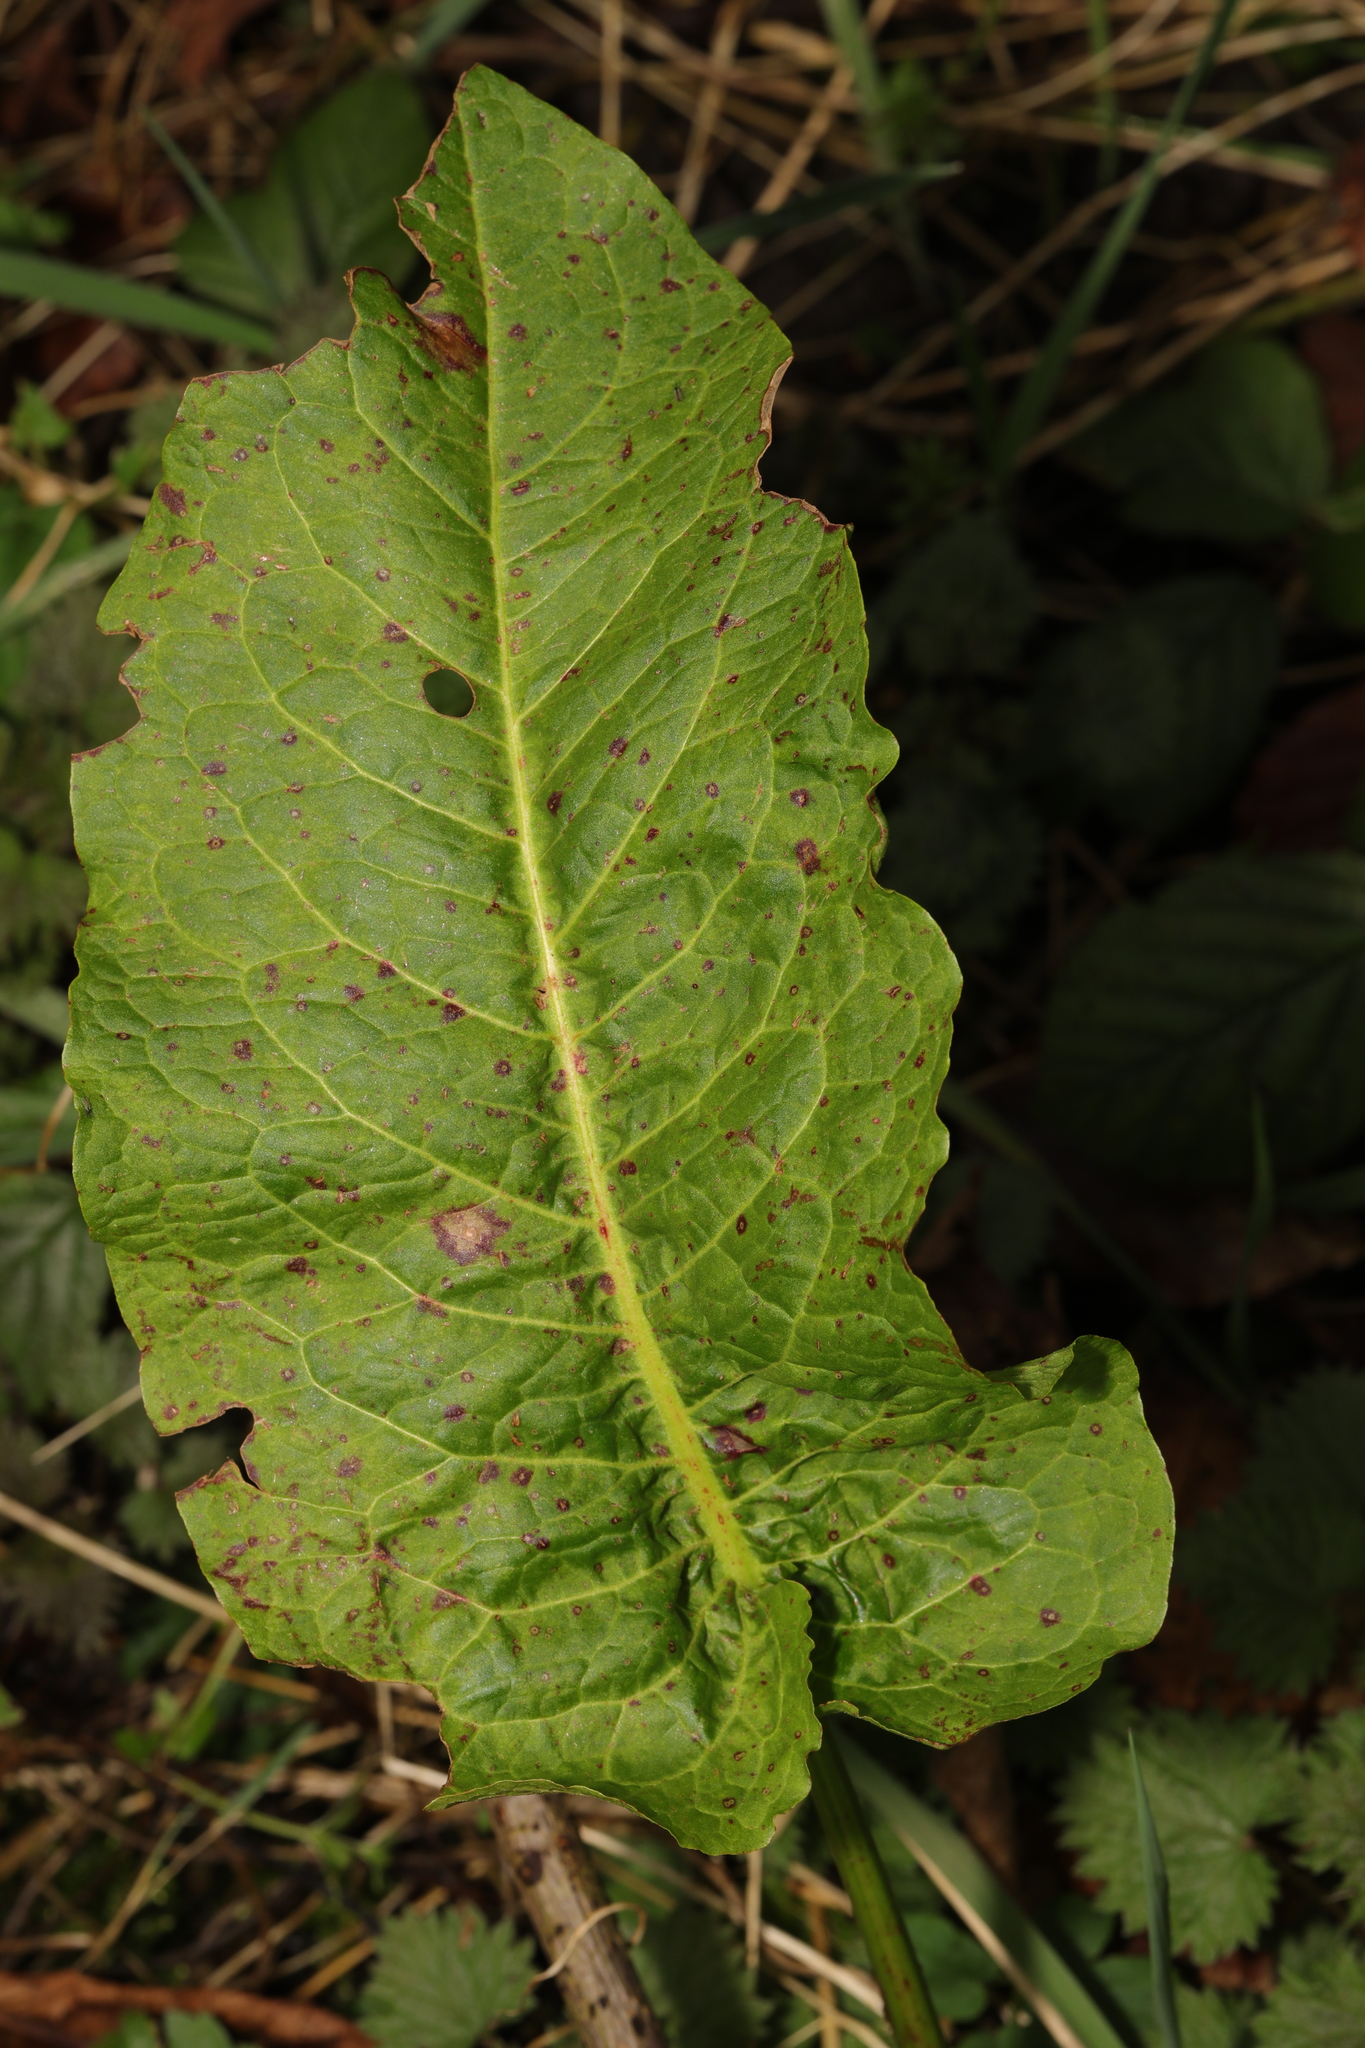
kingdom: Plantae
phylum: Tracheophyta
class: Magnoliopsida
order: Caryophyllales
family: Polygonaceae
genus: Rumex
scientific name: Rumex obtusifolius
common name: Bitter dock
